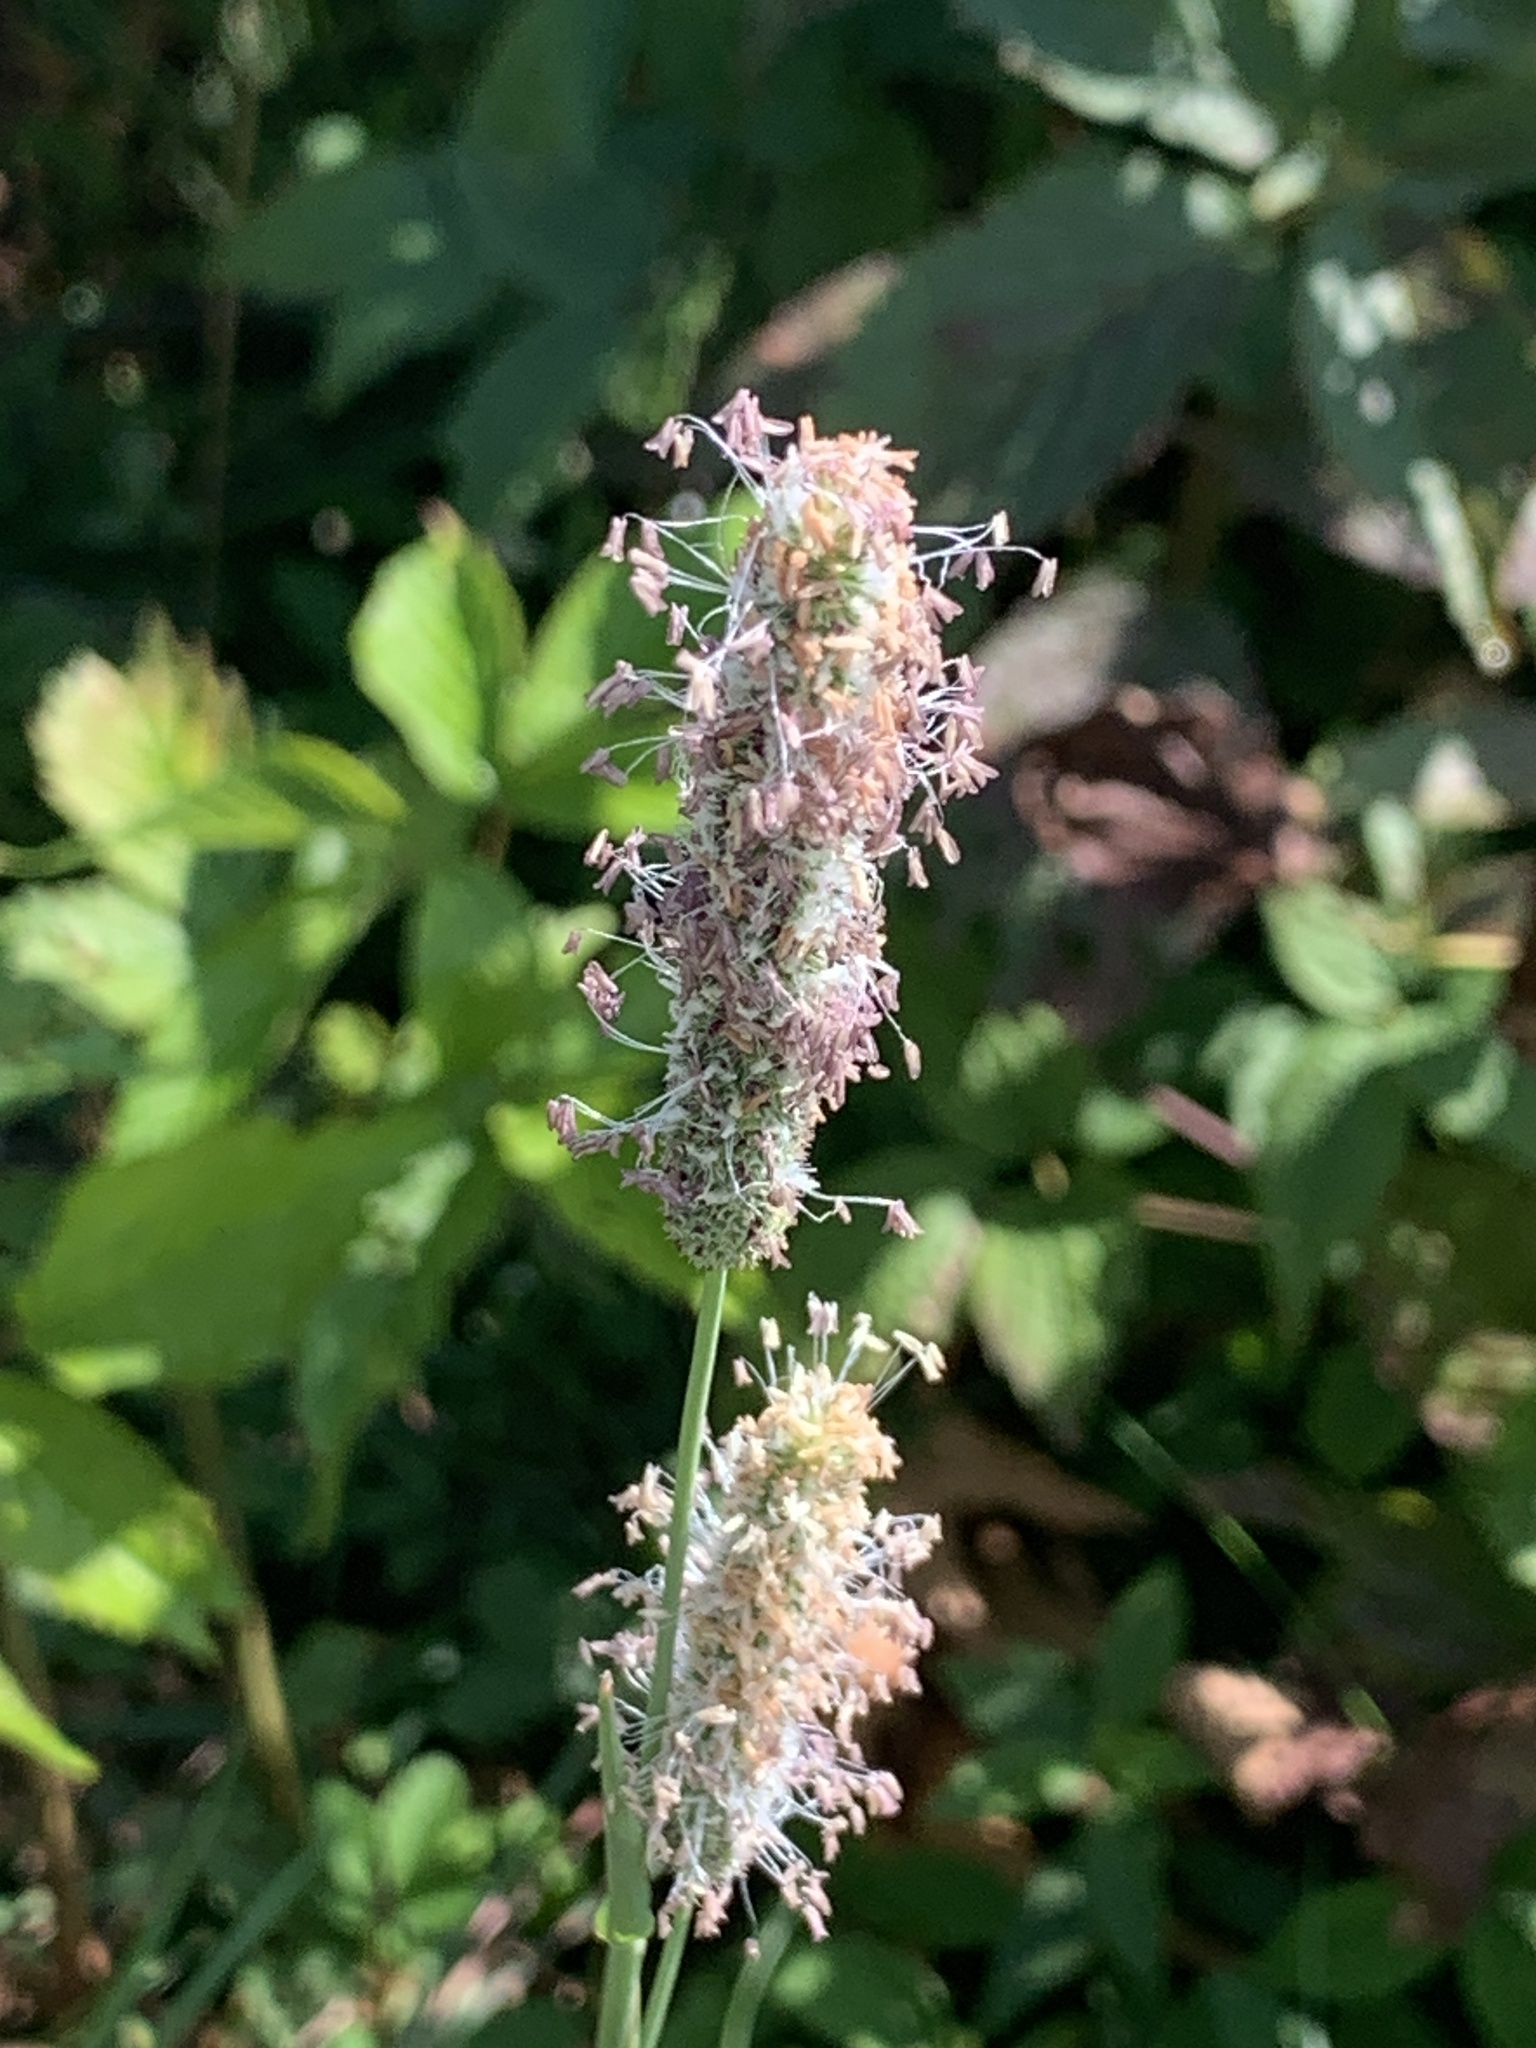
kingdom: Plantae
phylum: Tracheophyta
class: Liliopsida
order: Poales
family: Poaceae
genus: Phleum
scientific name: Phleum pratense
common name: Timothy grass
